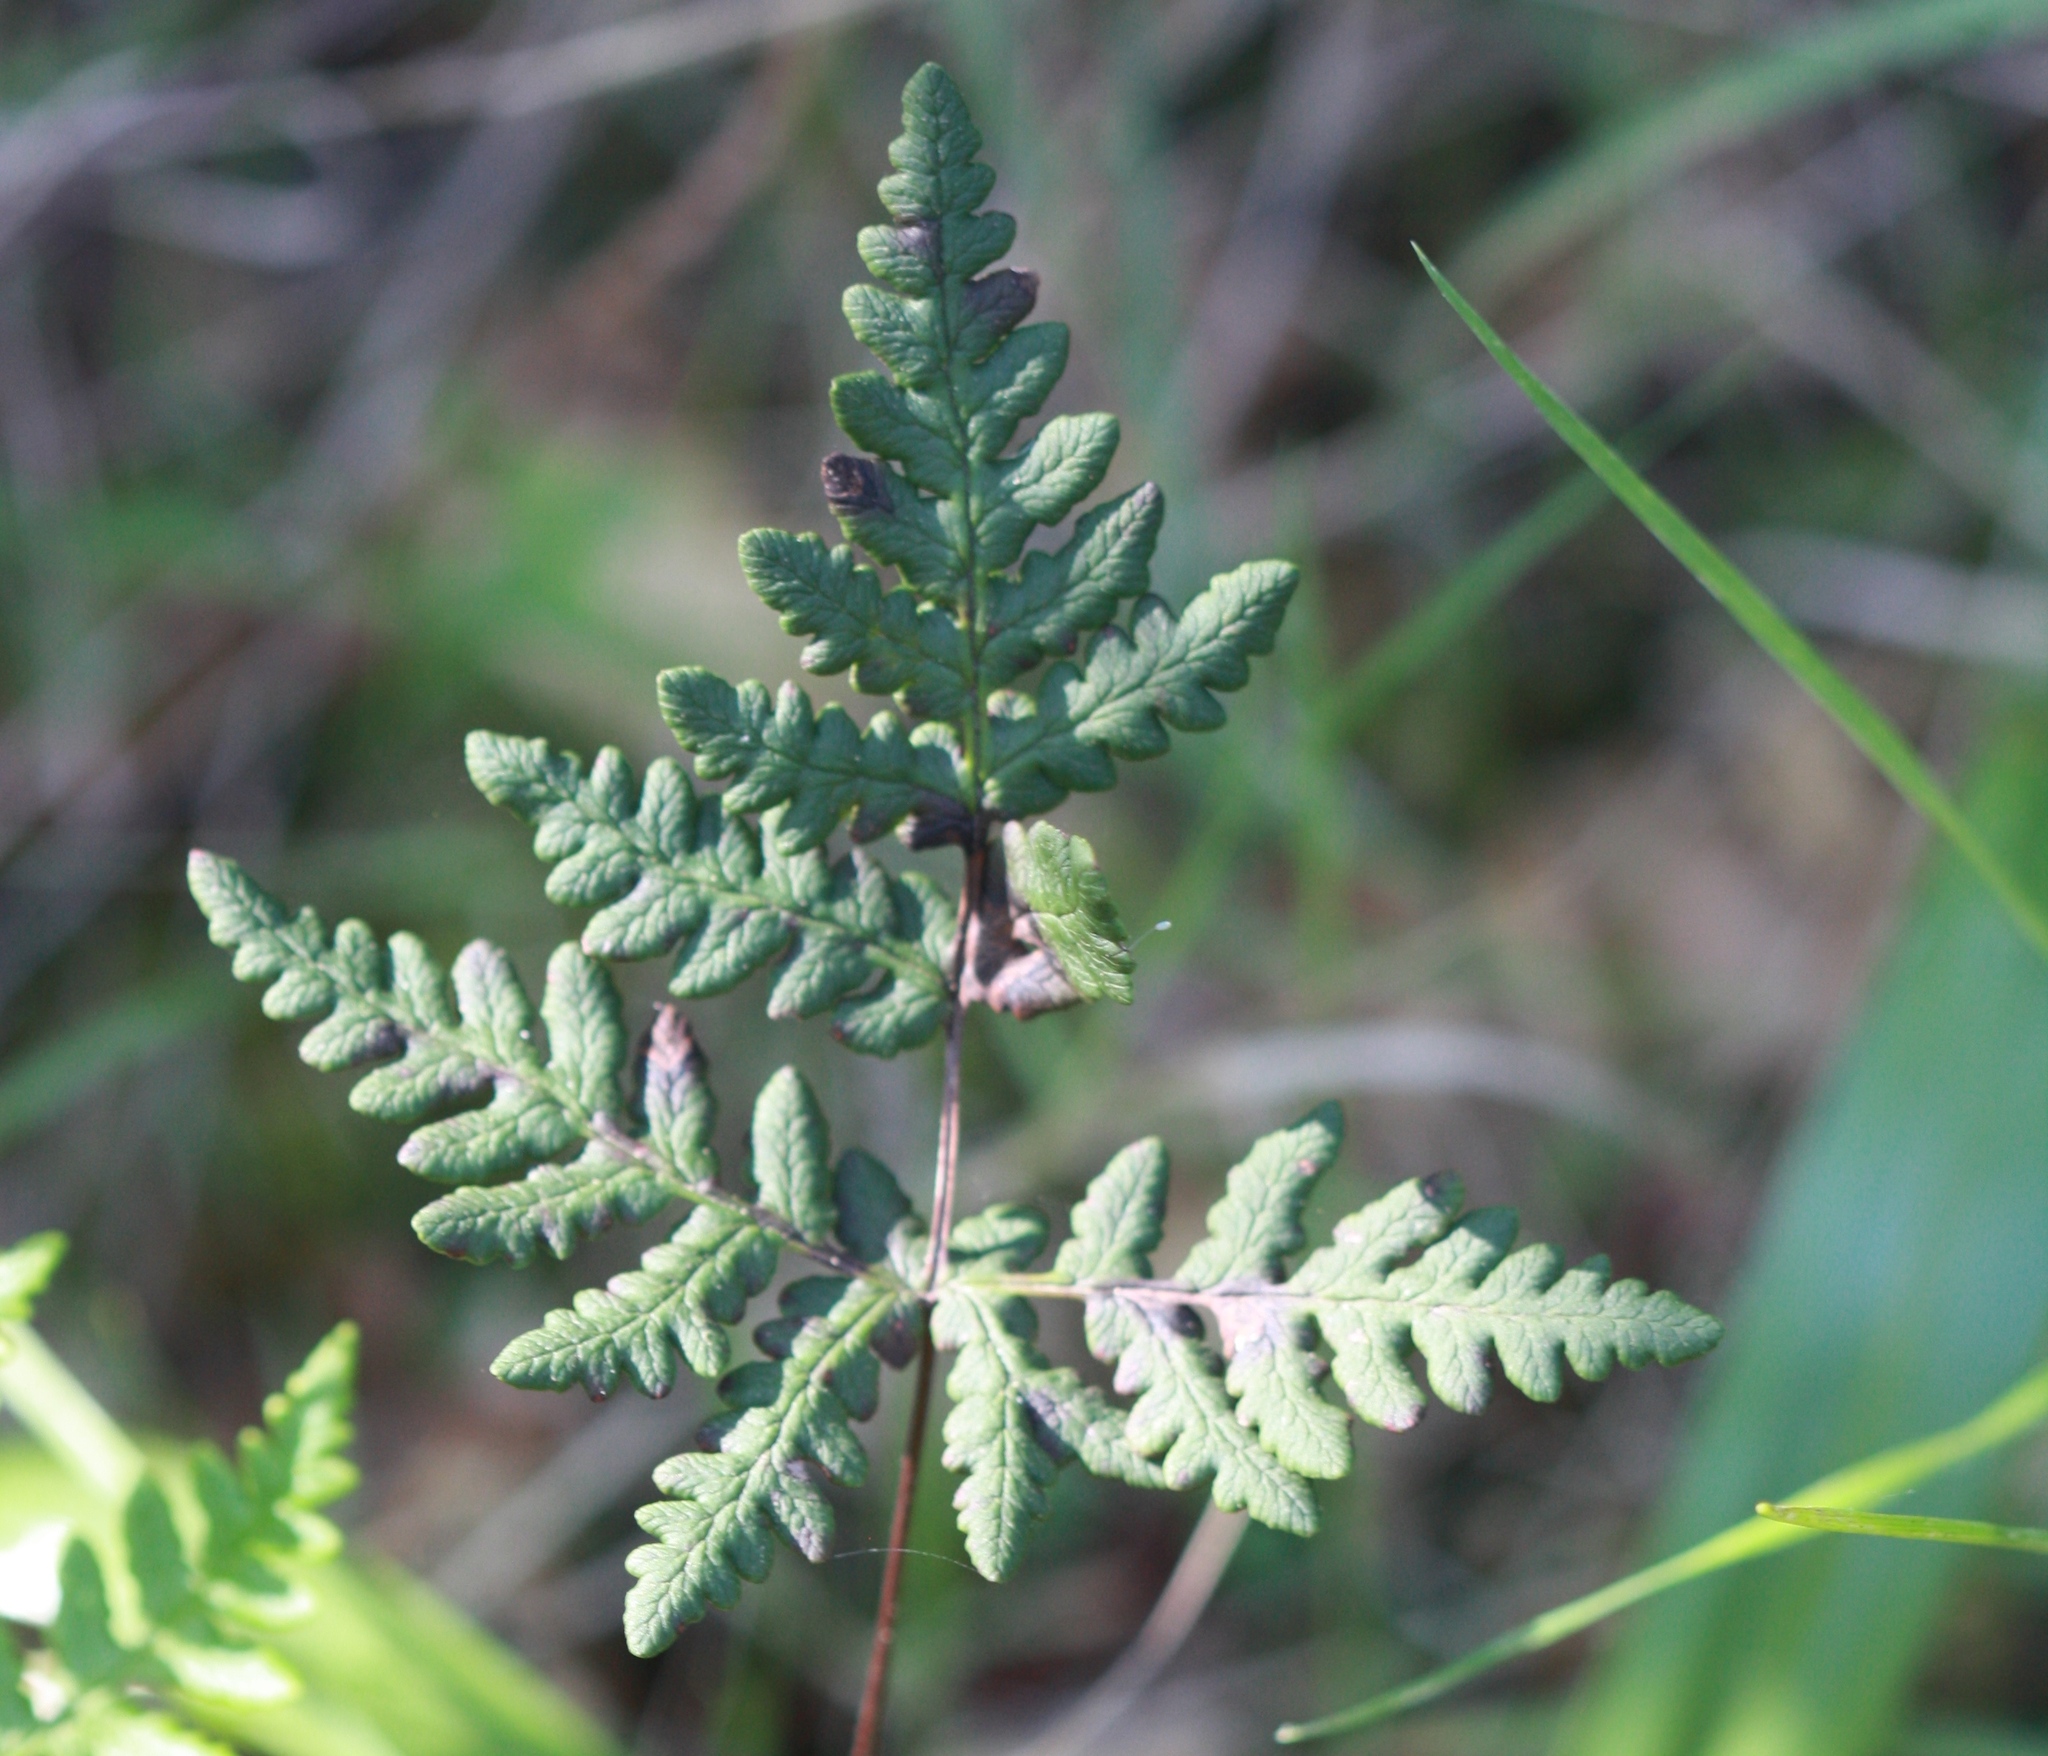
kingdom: Plantae
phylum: Tracheophyta
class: Polypodiopsida
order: Polypodiales
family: Pteridaceae
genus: Pentagramma
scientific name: Pentagramma triangularis
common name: Gold fern
